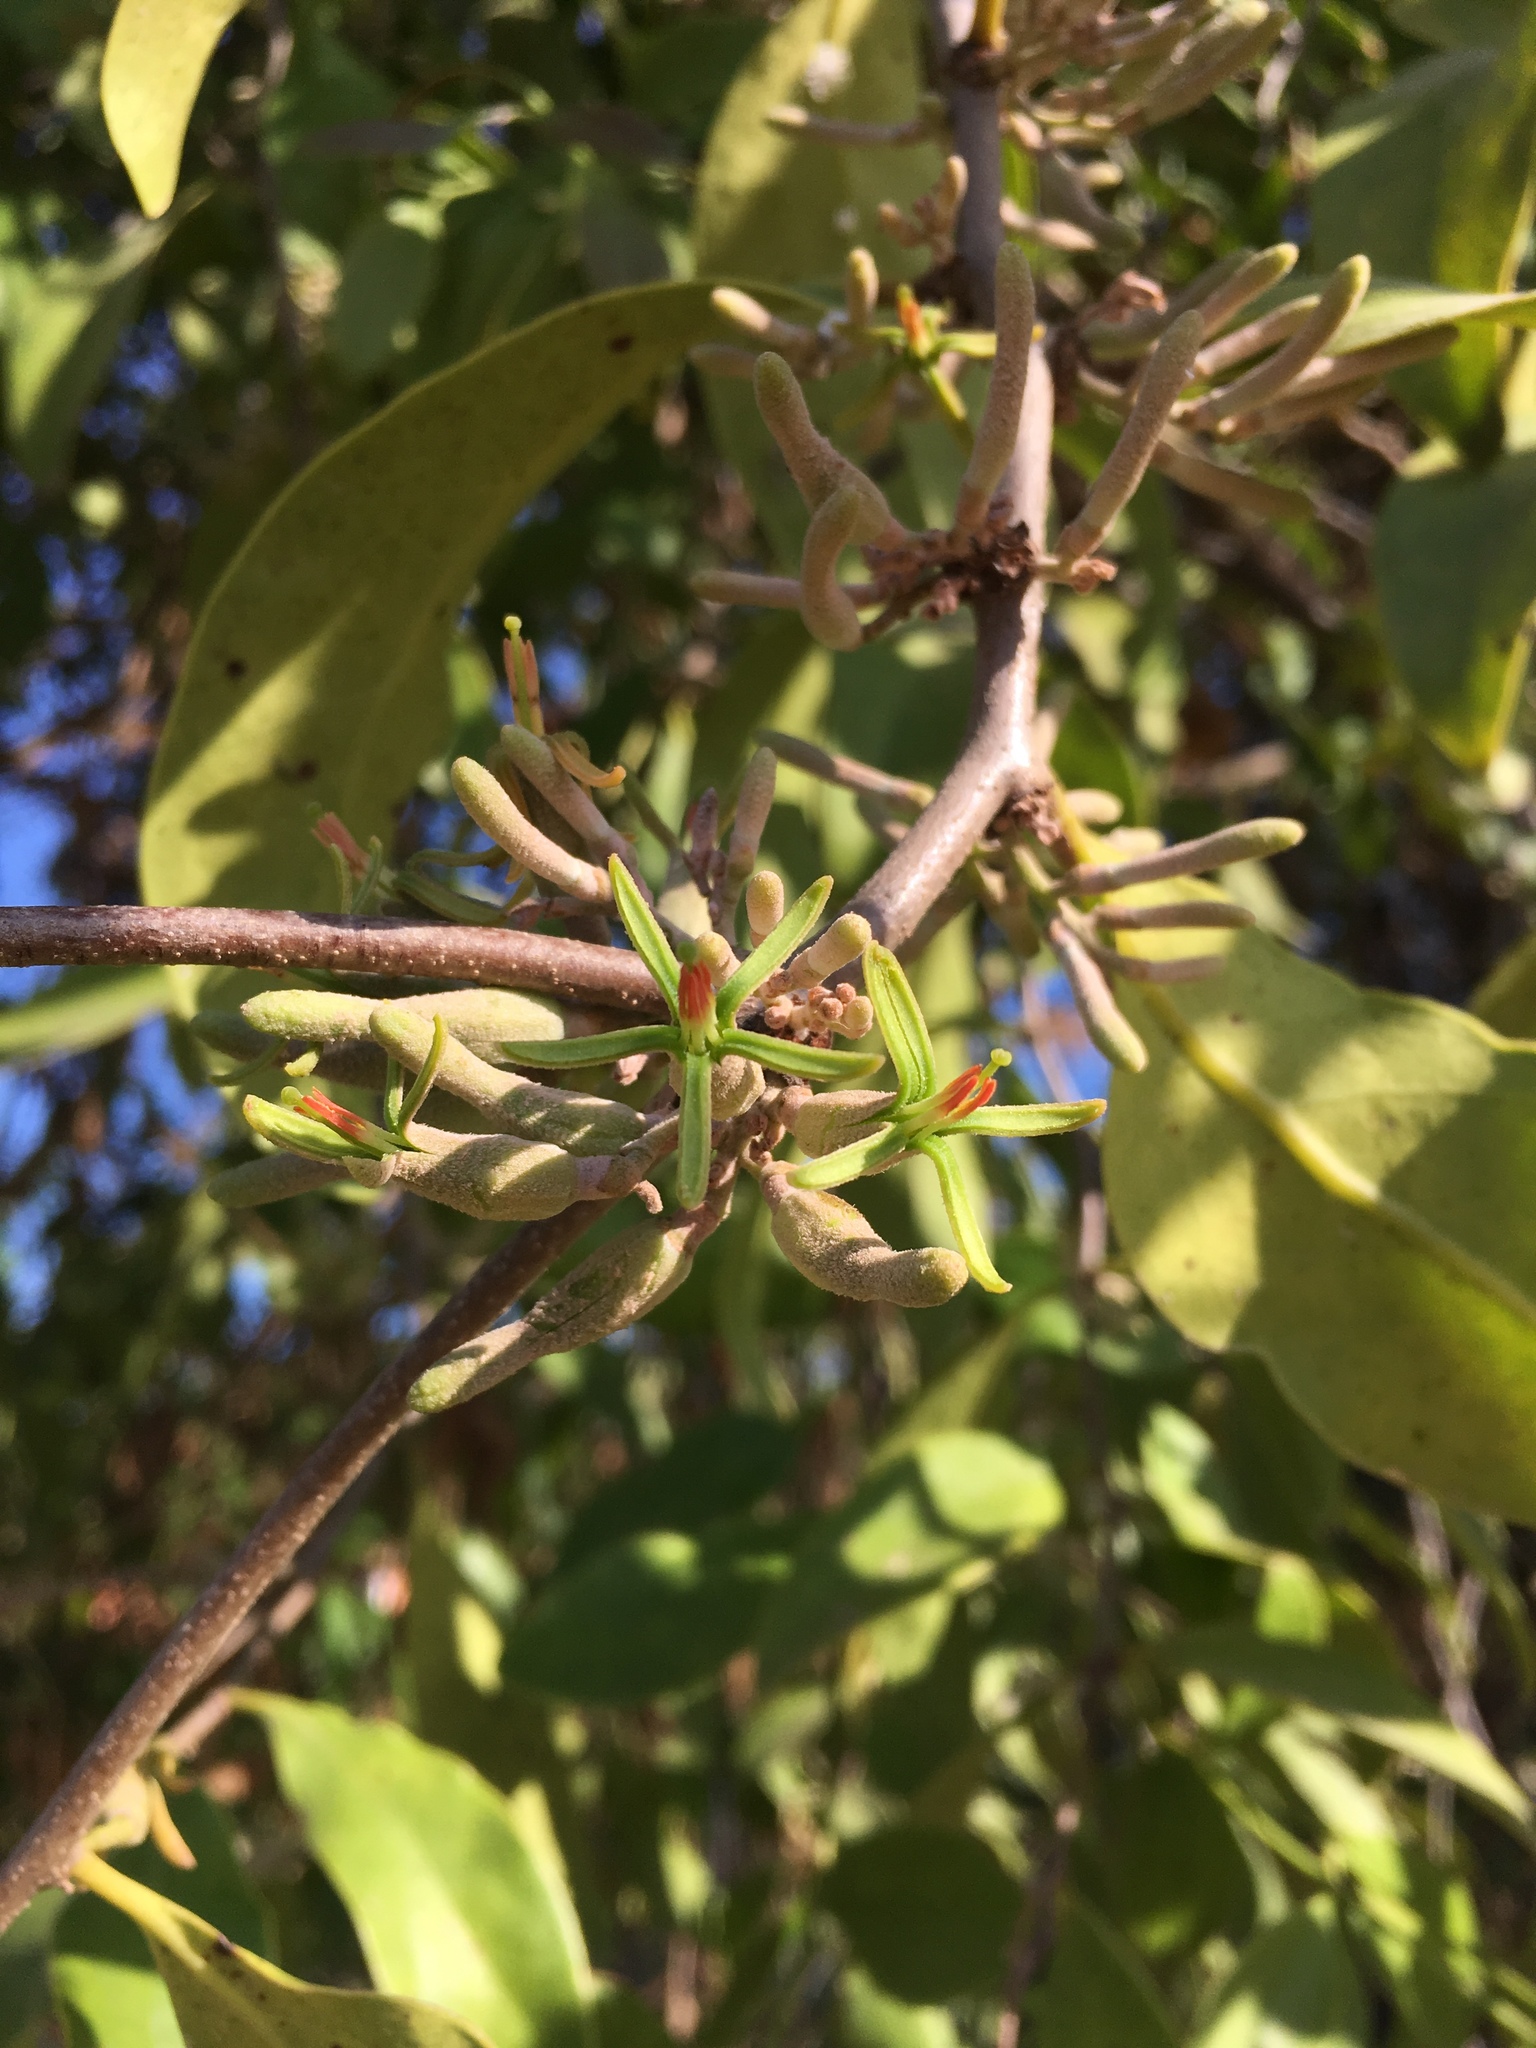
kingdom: Plantae
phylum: Tracheophyta
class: Magnoliopsida
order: Santalales
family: Loranthaceae
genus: Dendrophthoe
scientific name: Dendrophthoe pentandra
